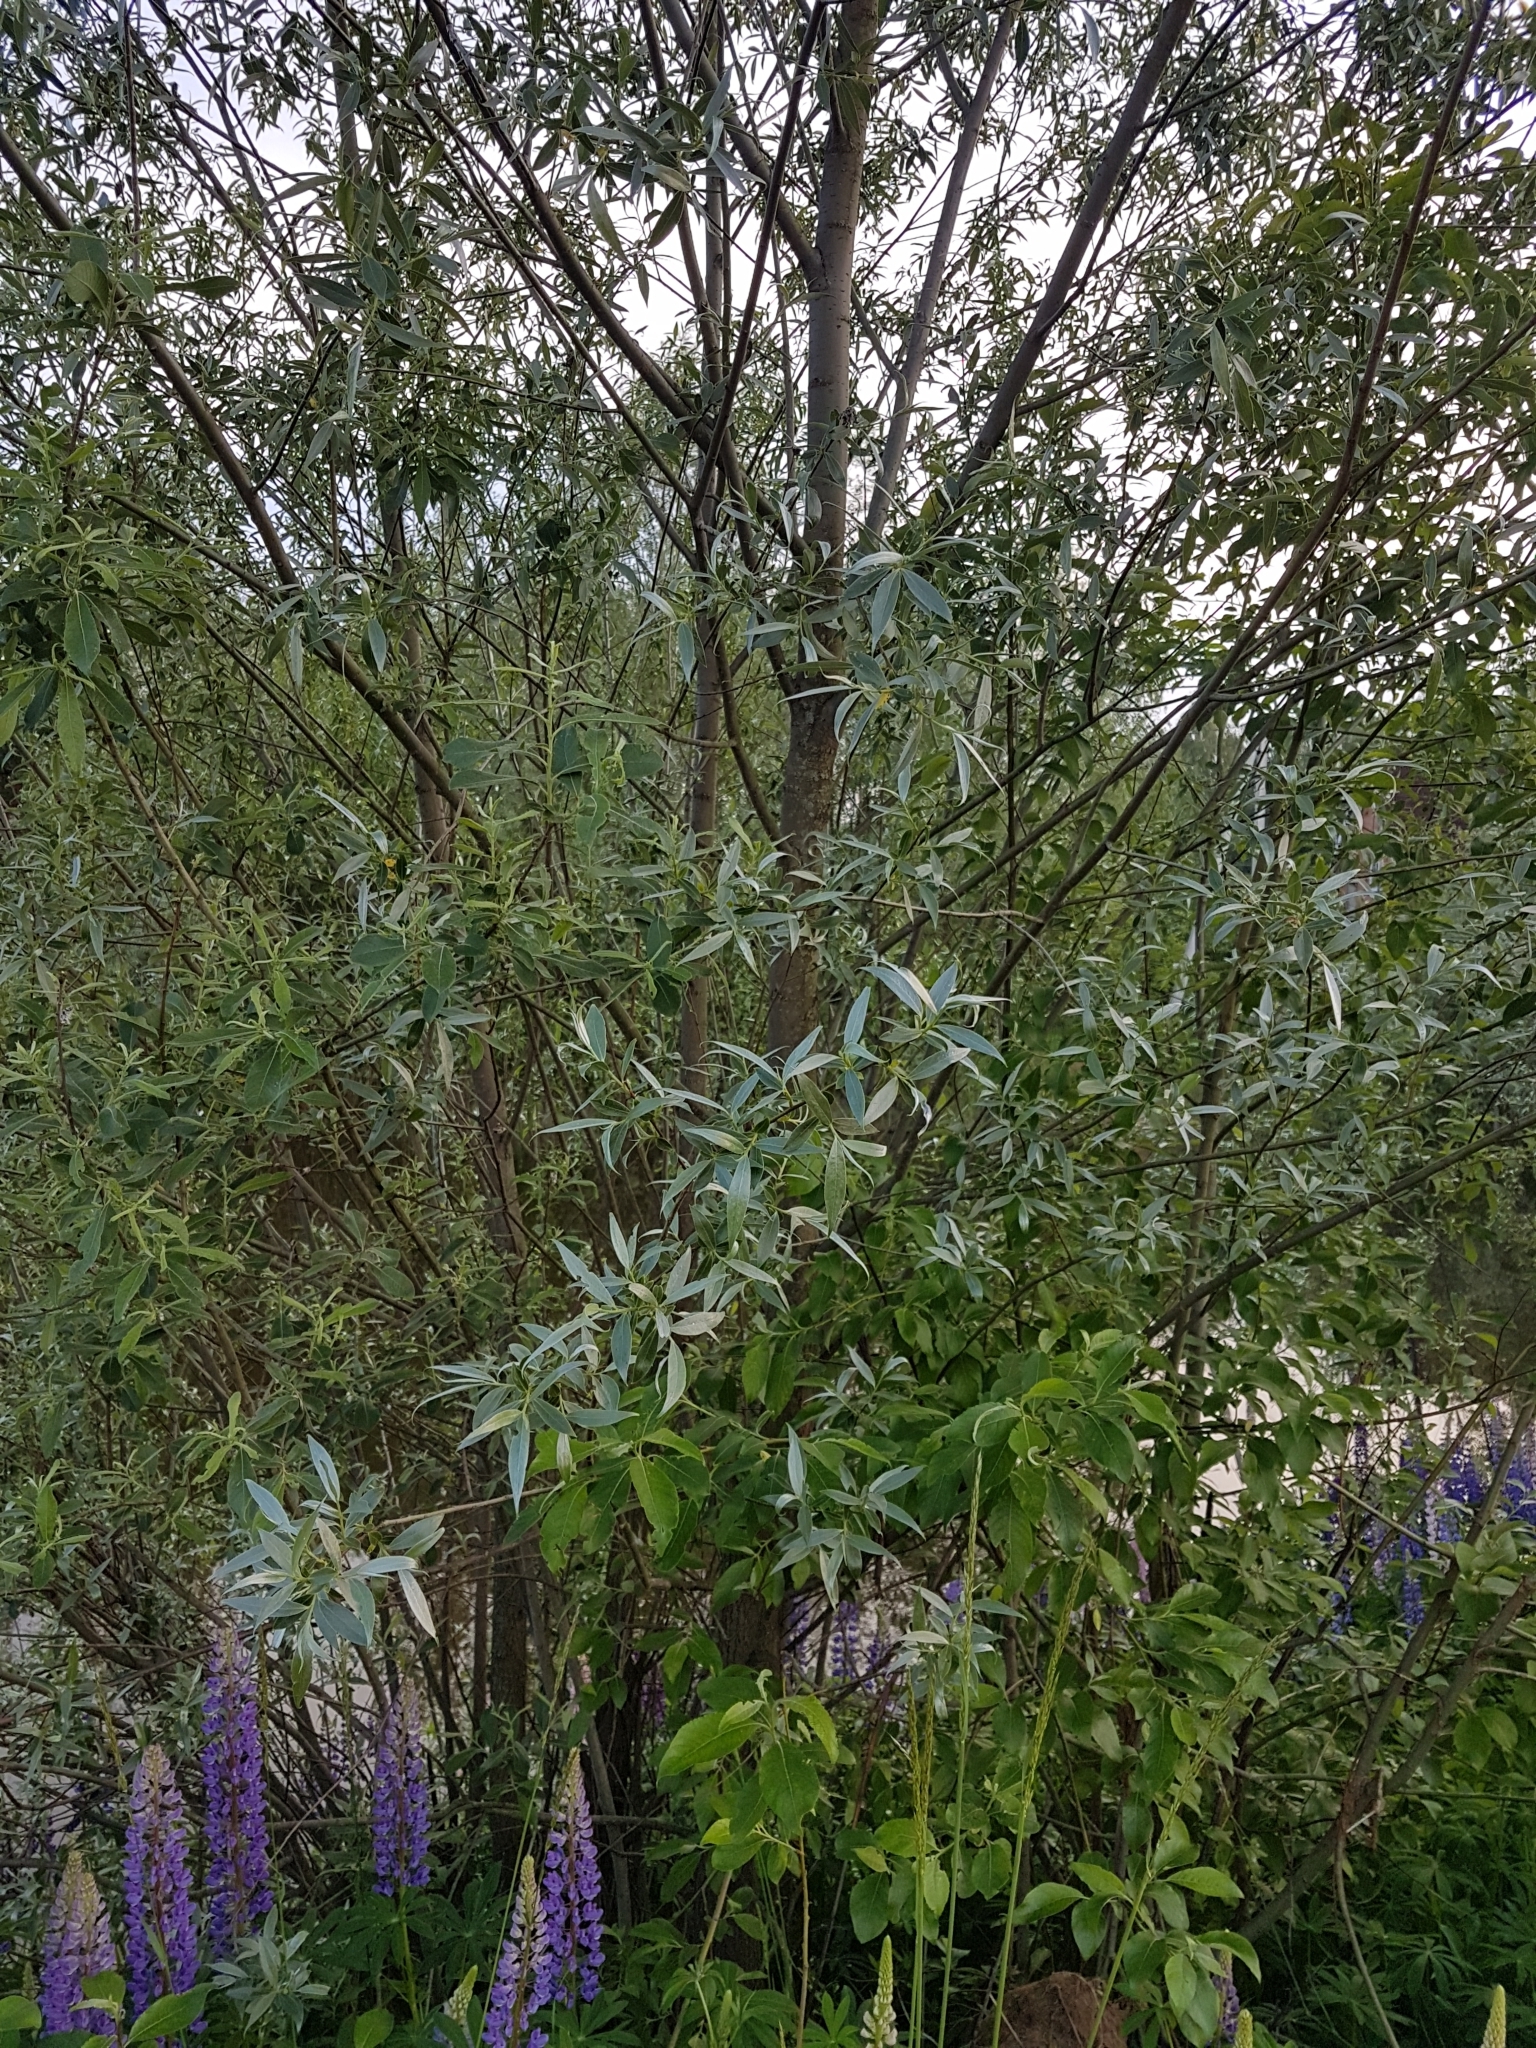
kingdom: Plantae
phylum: Tracheophyta
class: Magnoliopsida
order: Malpighiales
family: Salicaceae
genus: Salix
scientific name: Salix alba
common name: White willow
